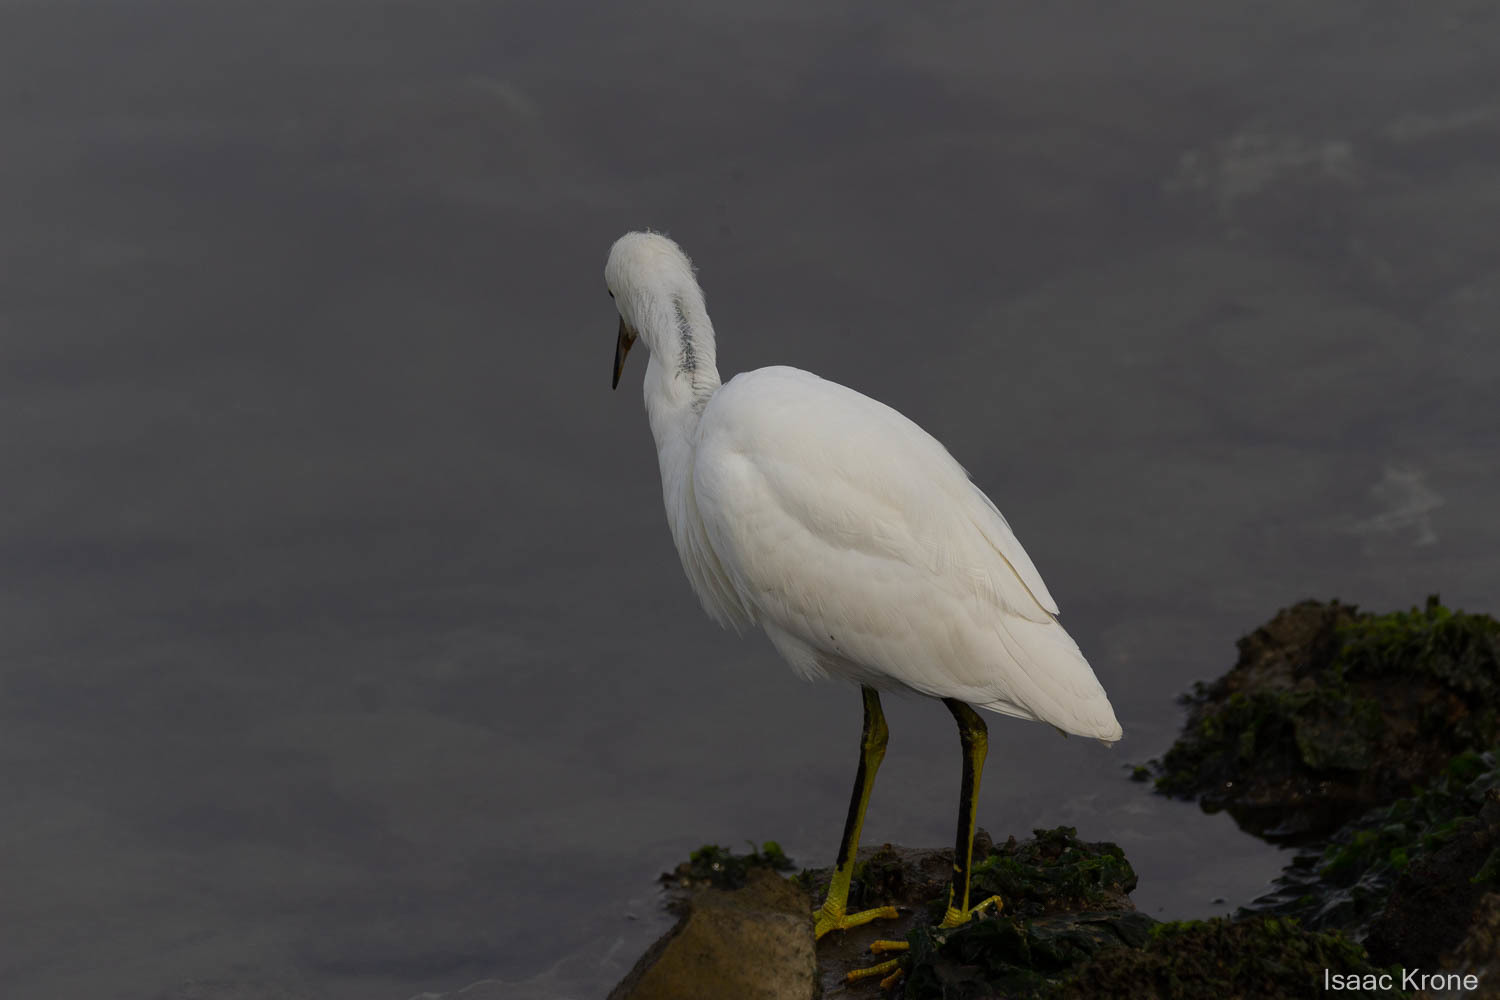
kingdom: Animalia
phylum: Chordata
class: Aves
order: Pelecaniformes
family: Ardeidae
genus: Egretta
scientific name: Egretta thula
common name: Snowy egret
